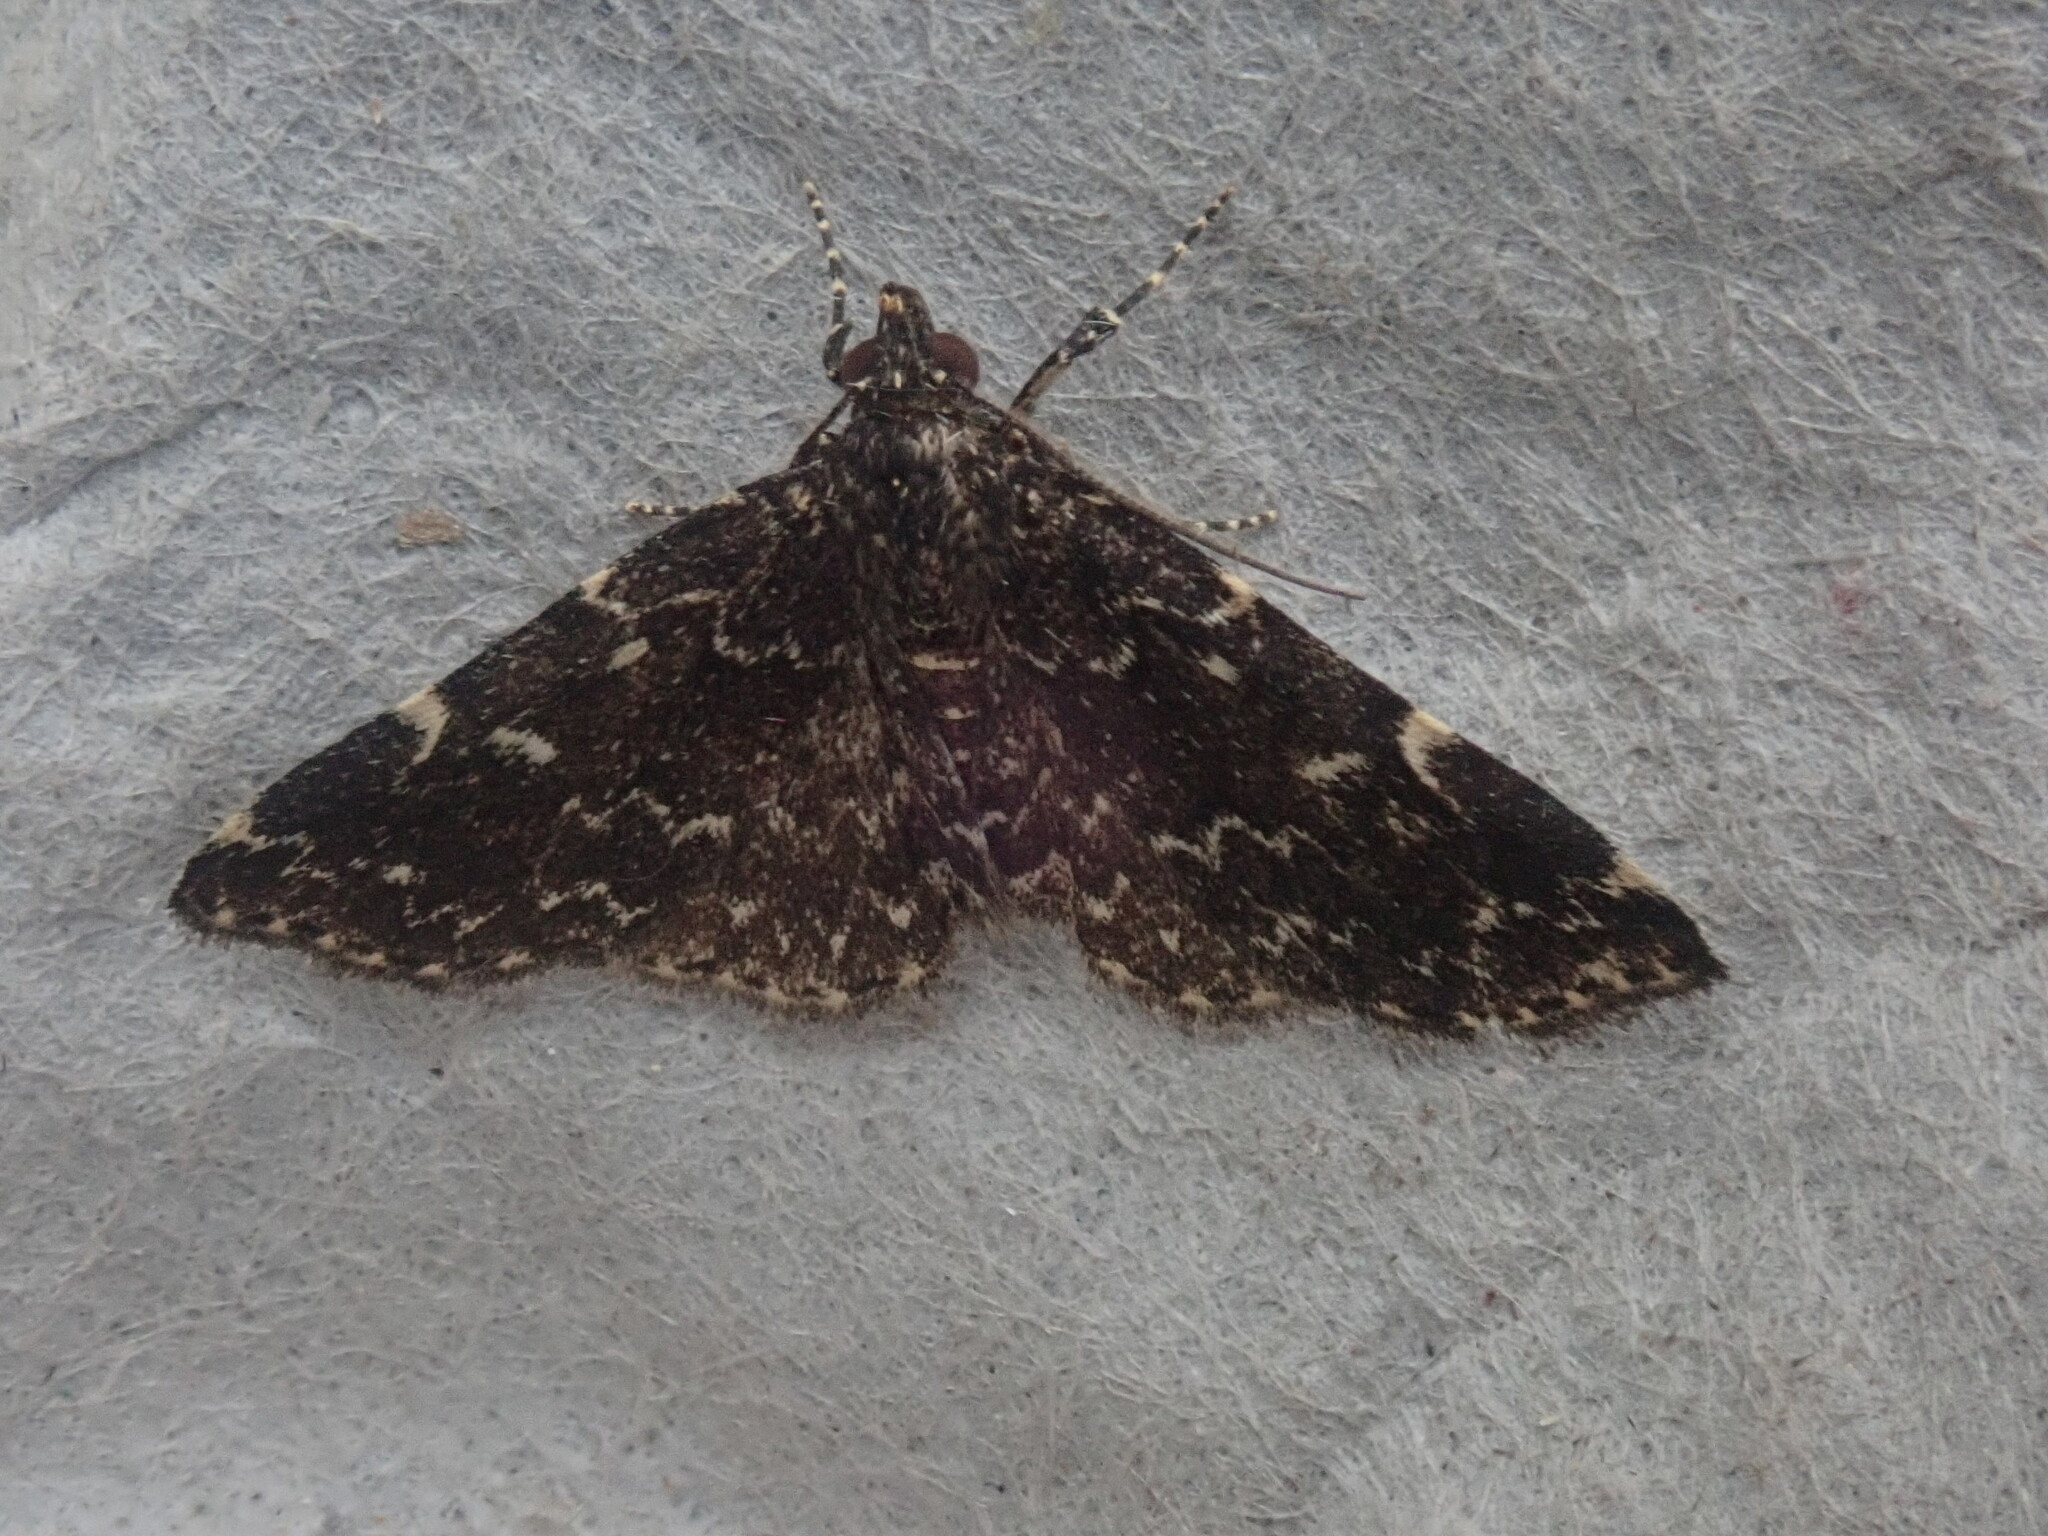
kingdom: Animalia
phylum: Arthropoda
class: Insecta
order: Lepidoptera
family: Erebidae
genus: Idia
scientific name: Idia scobialis
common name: Smoky idia moth
